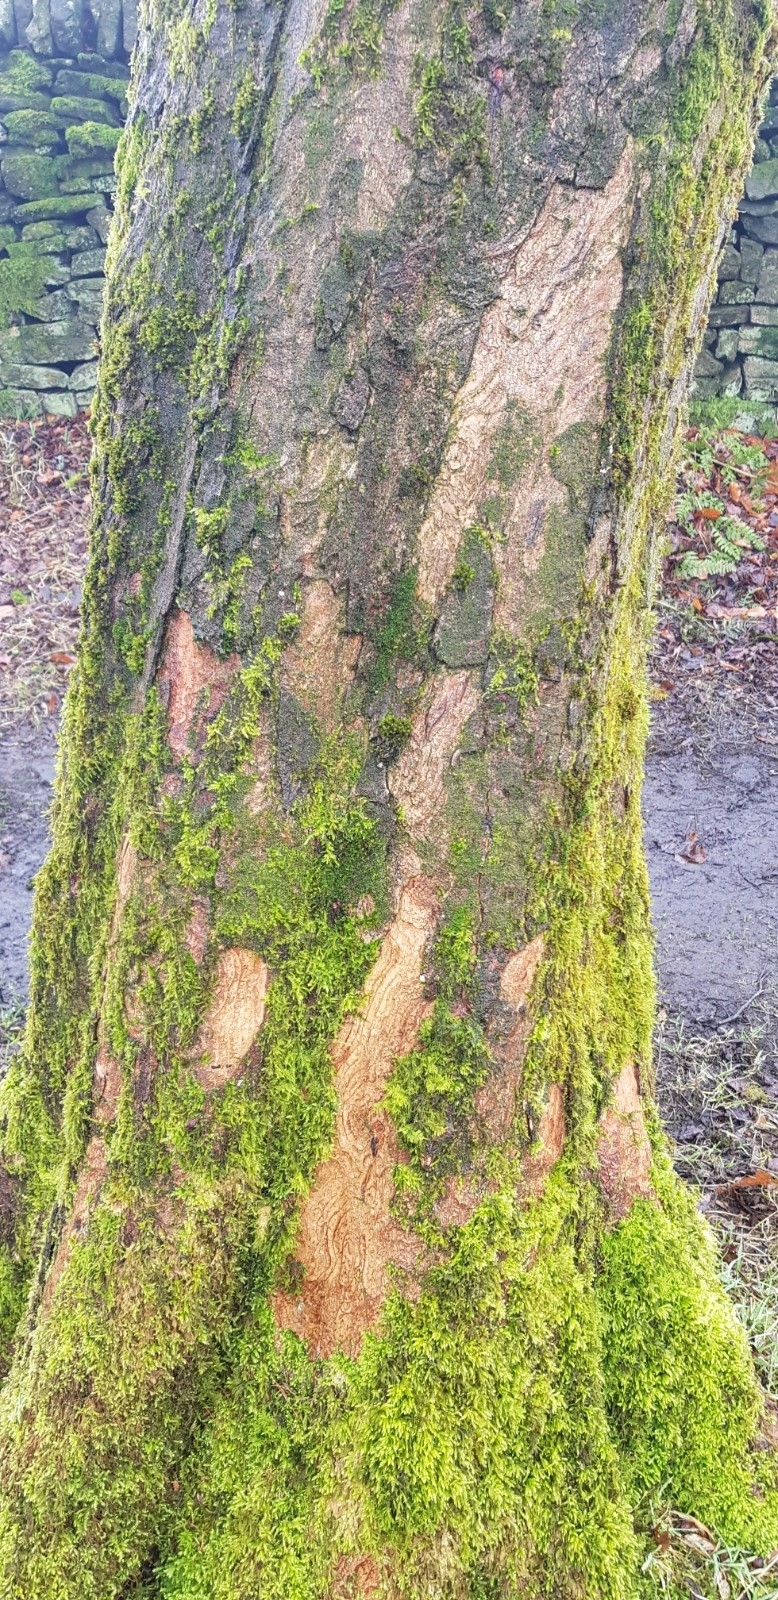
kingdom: Plantae
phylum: Marchantiophyta
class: Jungermanniopsida
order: Metzgeriales
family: Metzgeriaceae
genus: Metzgeria
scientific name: Metzgeria violacea
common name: Blueish veilwort
